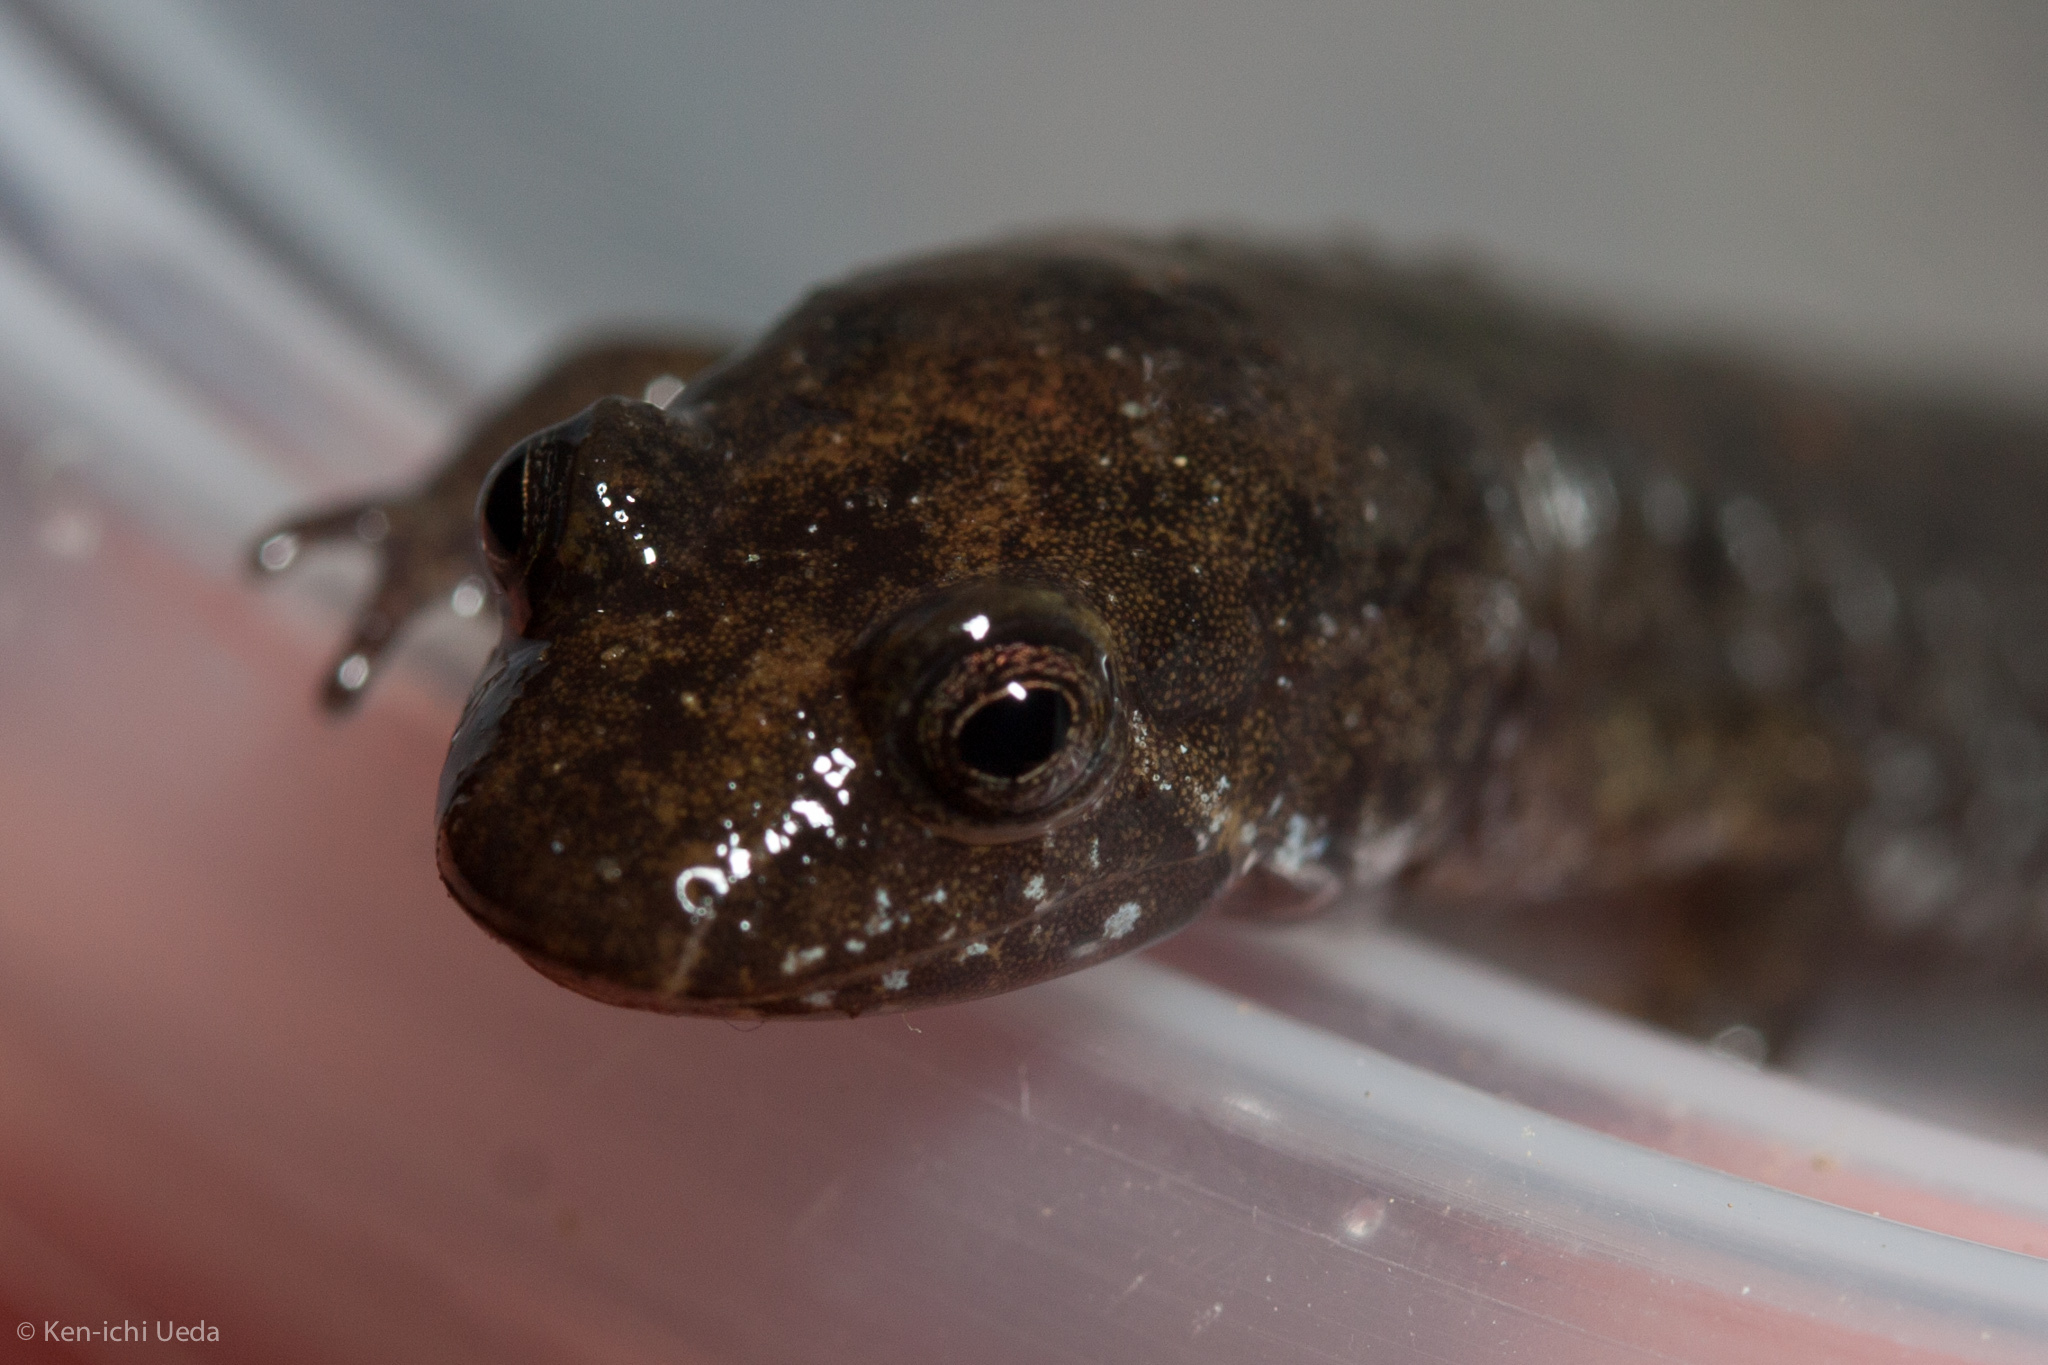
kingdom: Animalia
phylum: Chordata
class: Amphibia
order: Caudata
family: Plethodontidae
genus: Desmognathus
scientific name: Desmognathus
